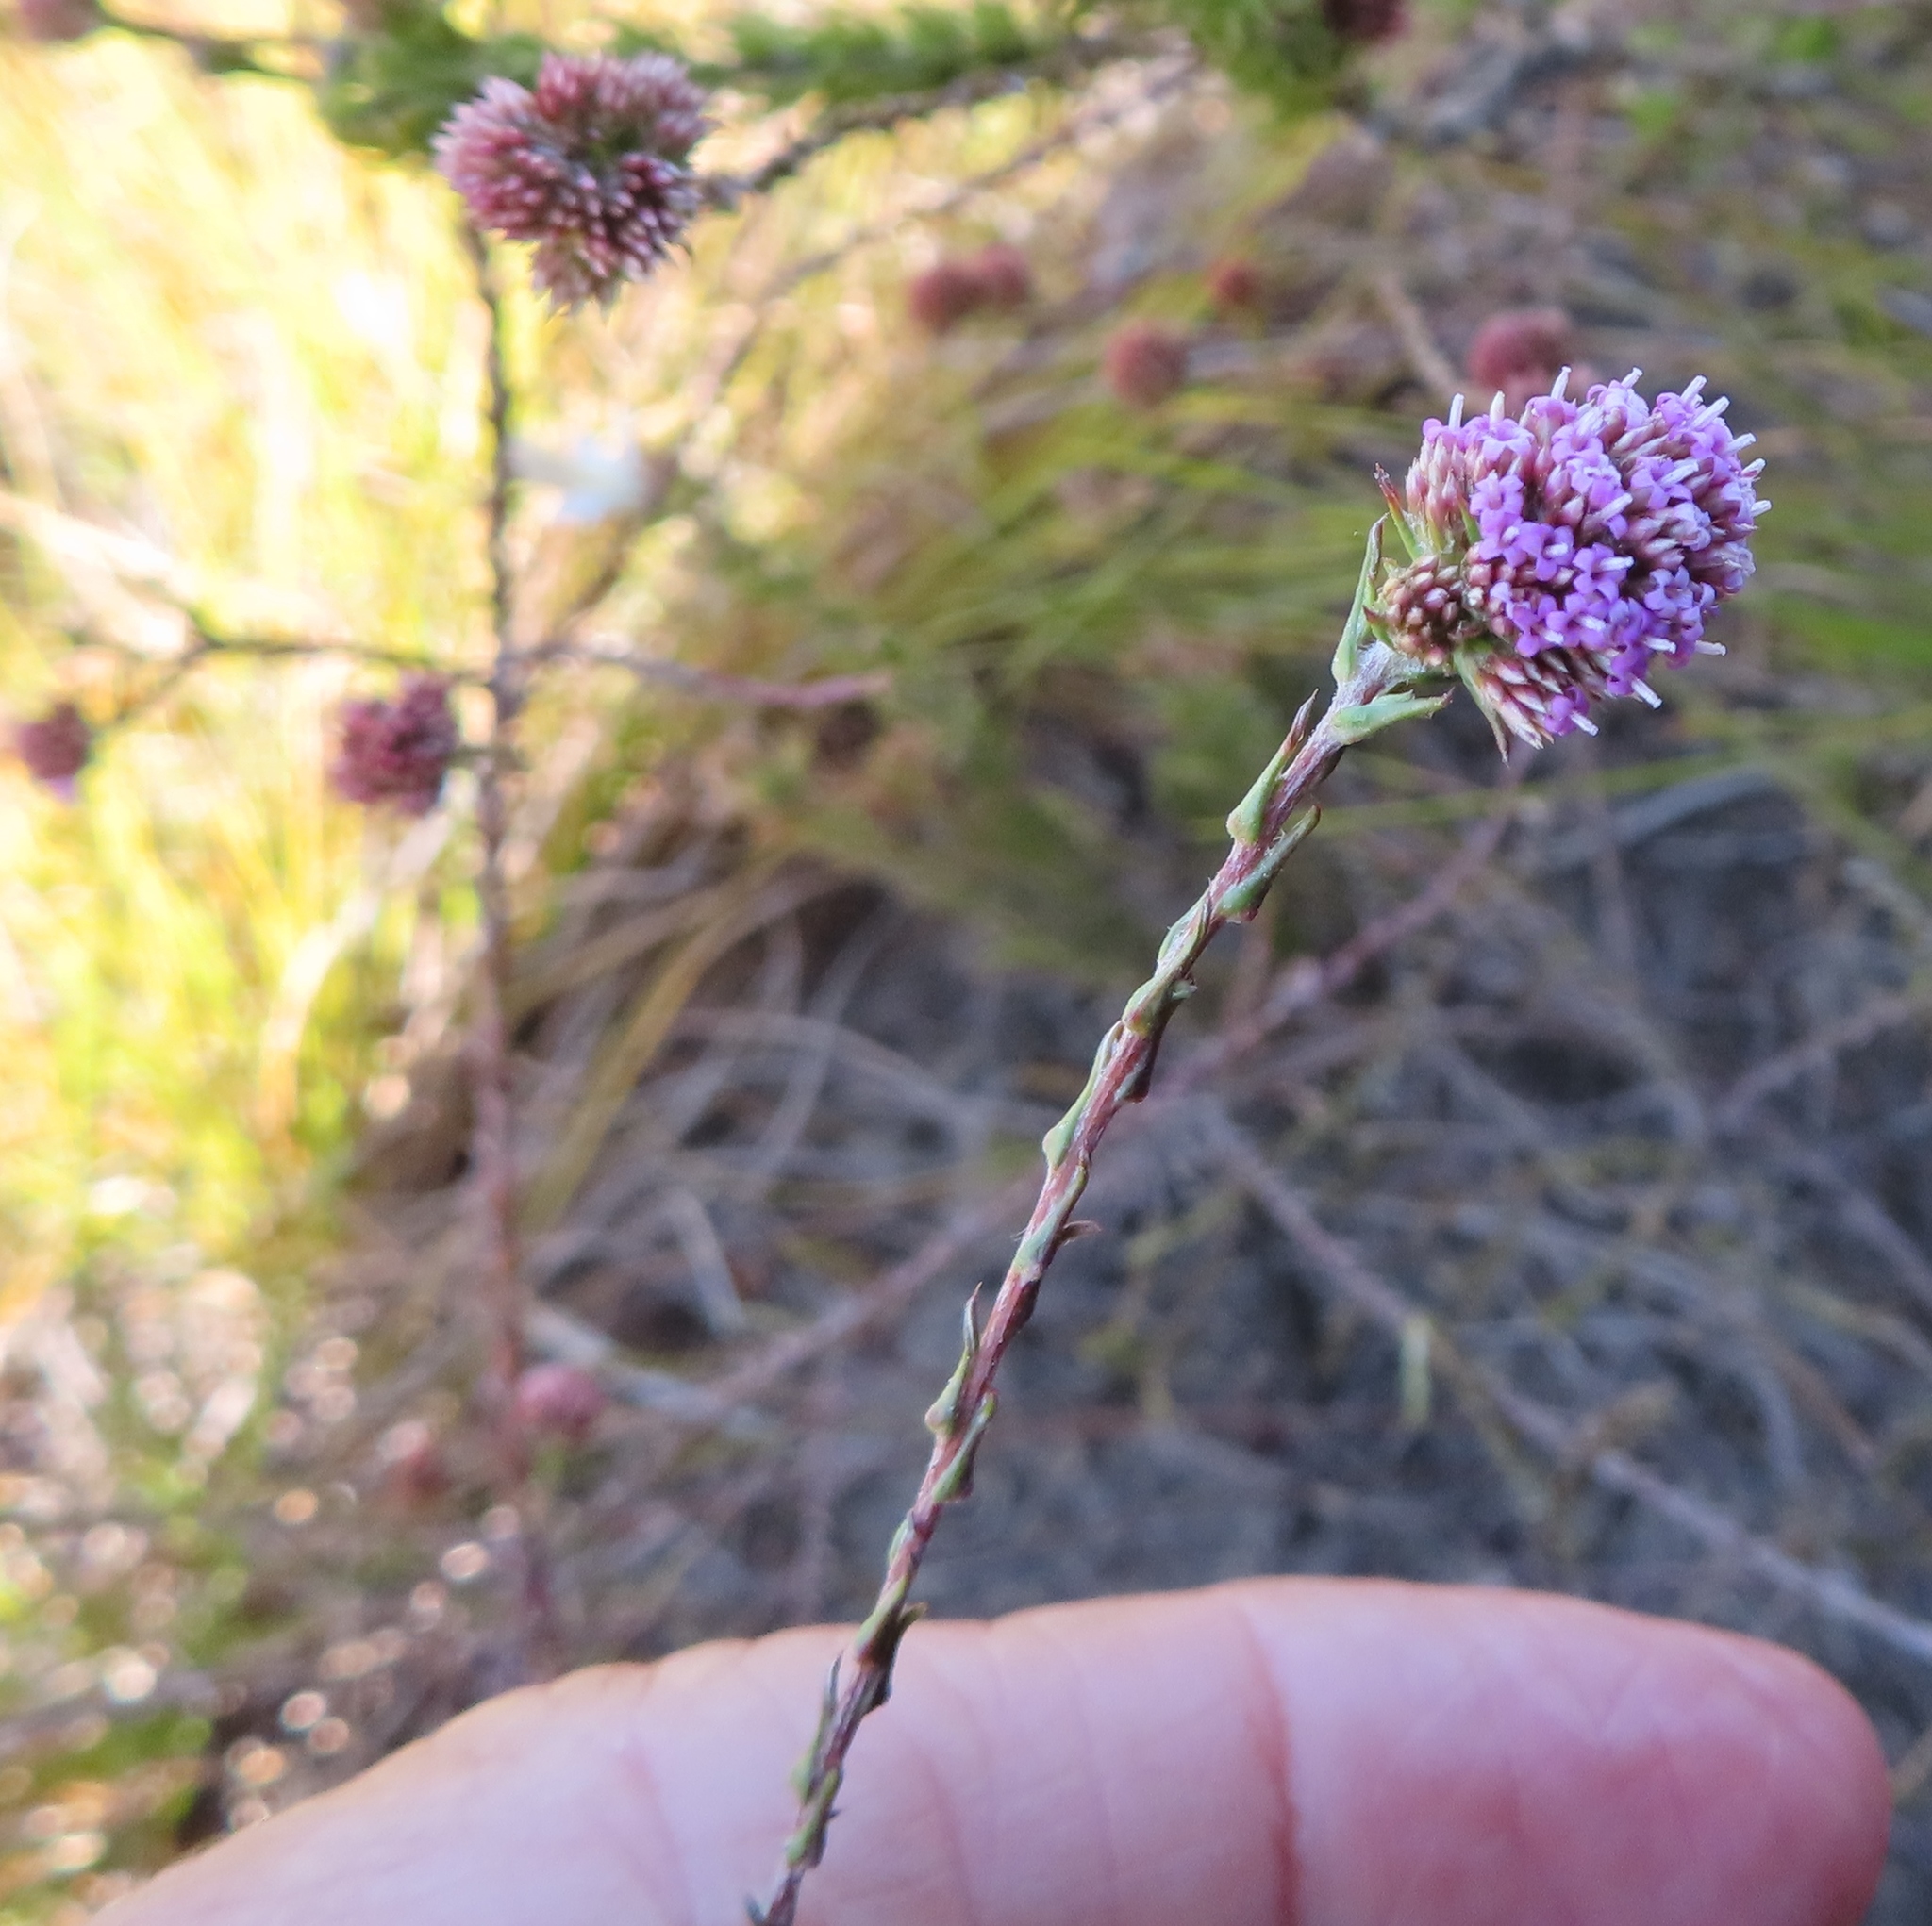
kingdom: Plantae
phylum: Tracheophyta
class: Magnoliopsida
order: Asterales
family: Asteraceae
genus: Stoebe
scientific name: Stoebe capitata
